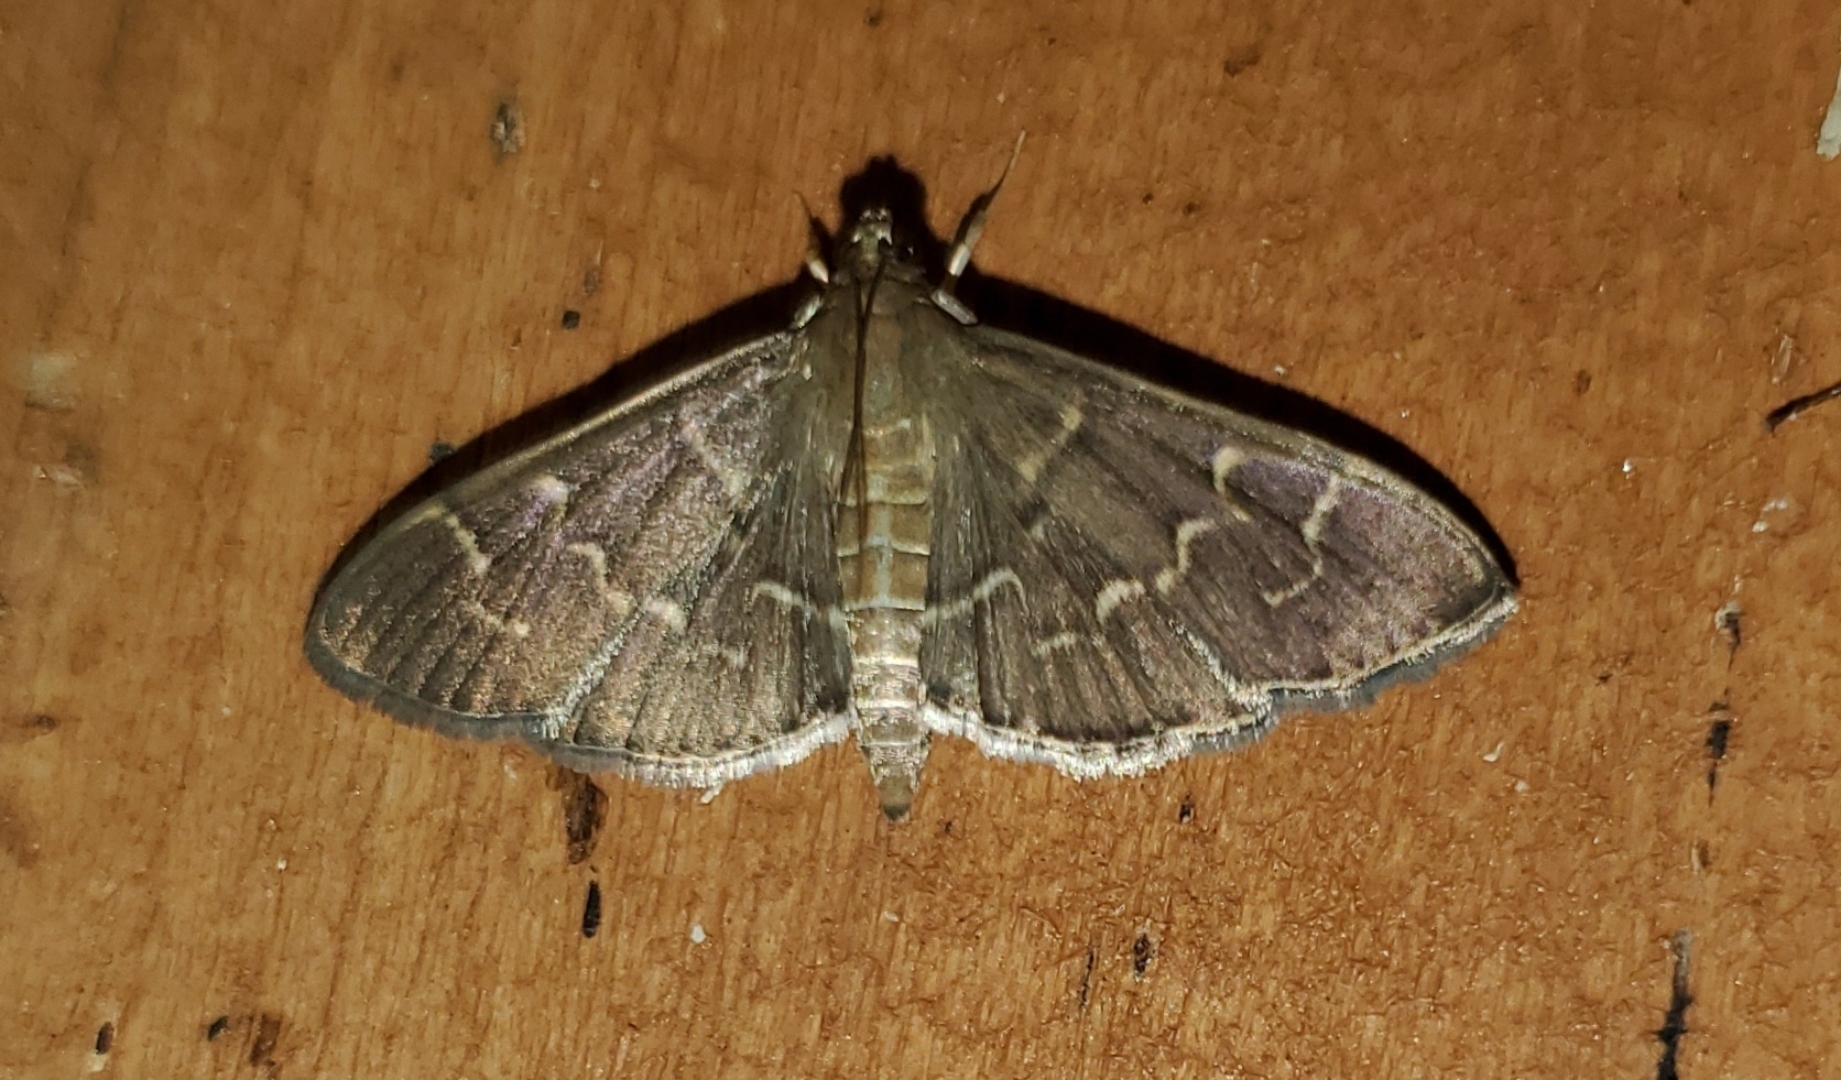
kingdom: Animalia
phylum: Arthropoda
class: Insecta
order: Lepidoptera
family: Crambidae
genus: Pilocrocis
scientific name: Pilocrocis ramentalis
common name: Scraped pilocrocis
